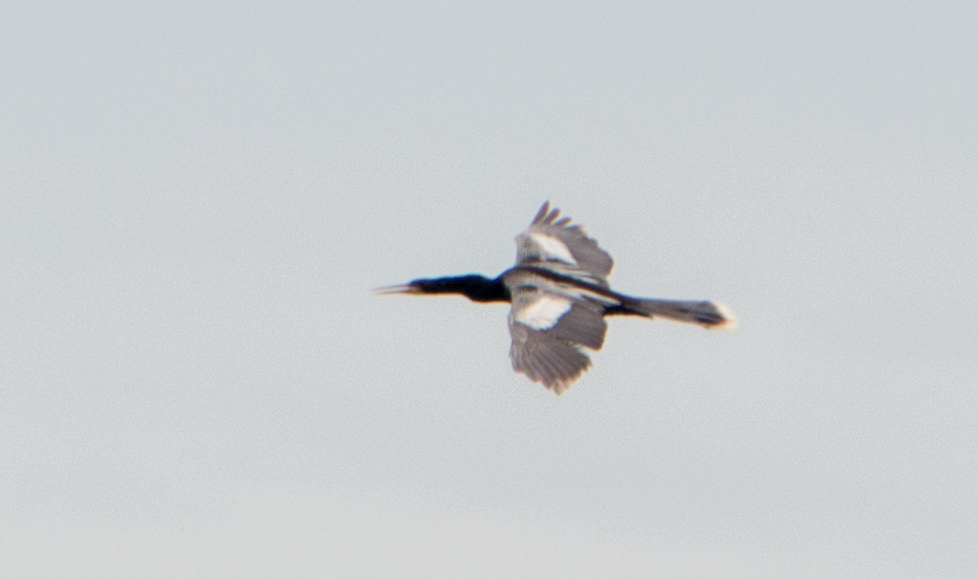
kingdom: Animalia
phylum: Chordata
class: Aves
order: Suliformes
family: Anhingidae
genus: Anhinga
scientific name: Anhinga anhinga
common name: Anhinga
